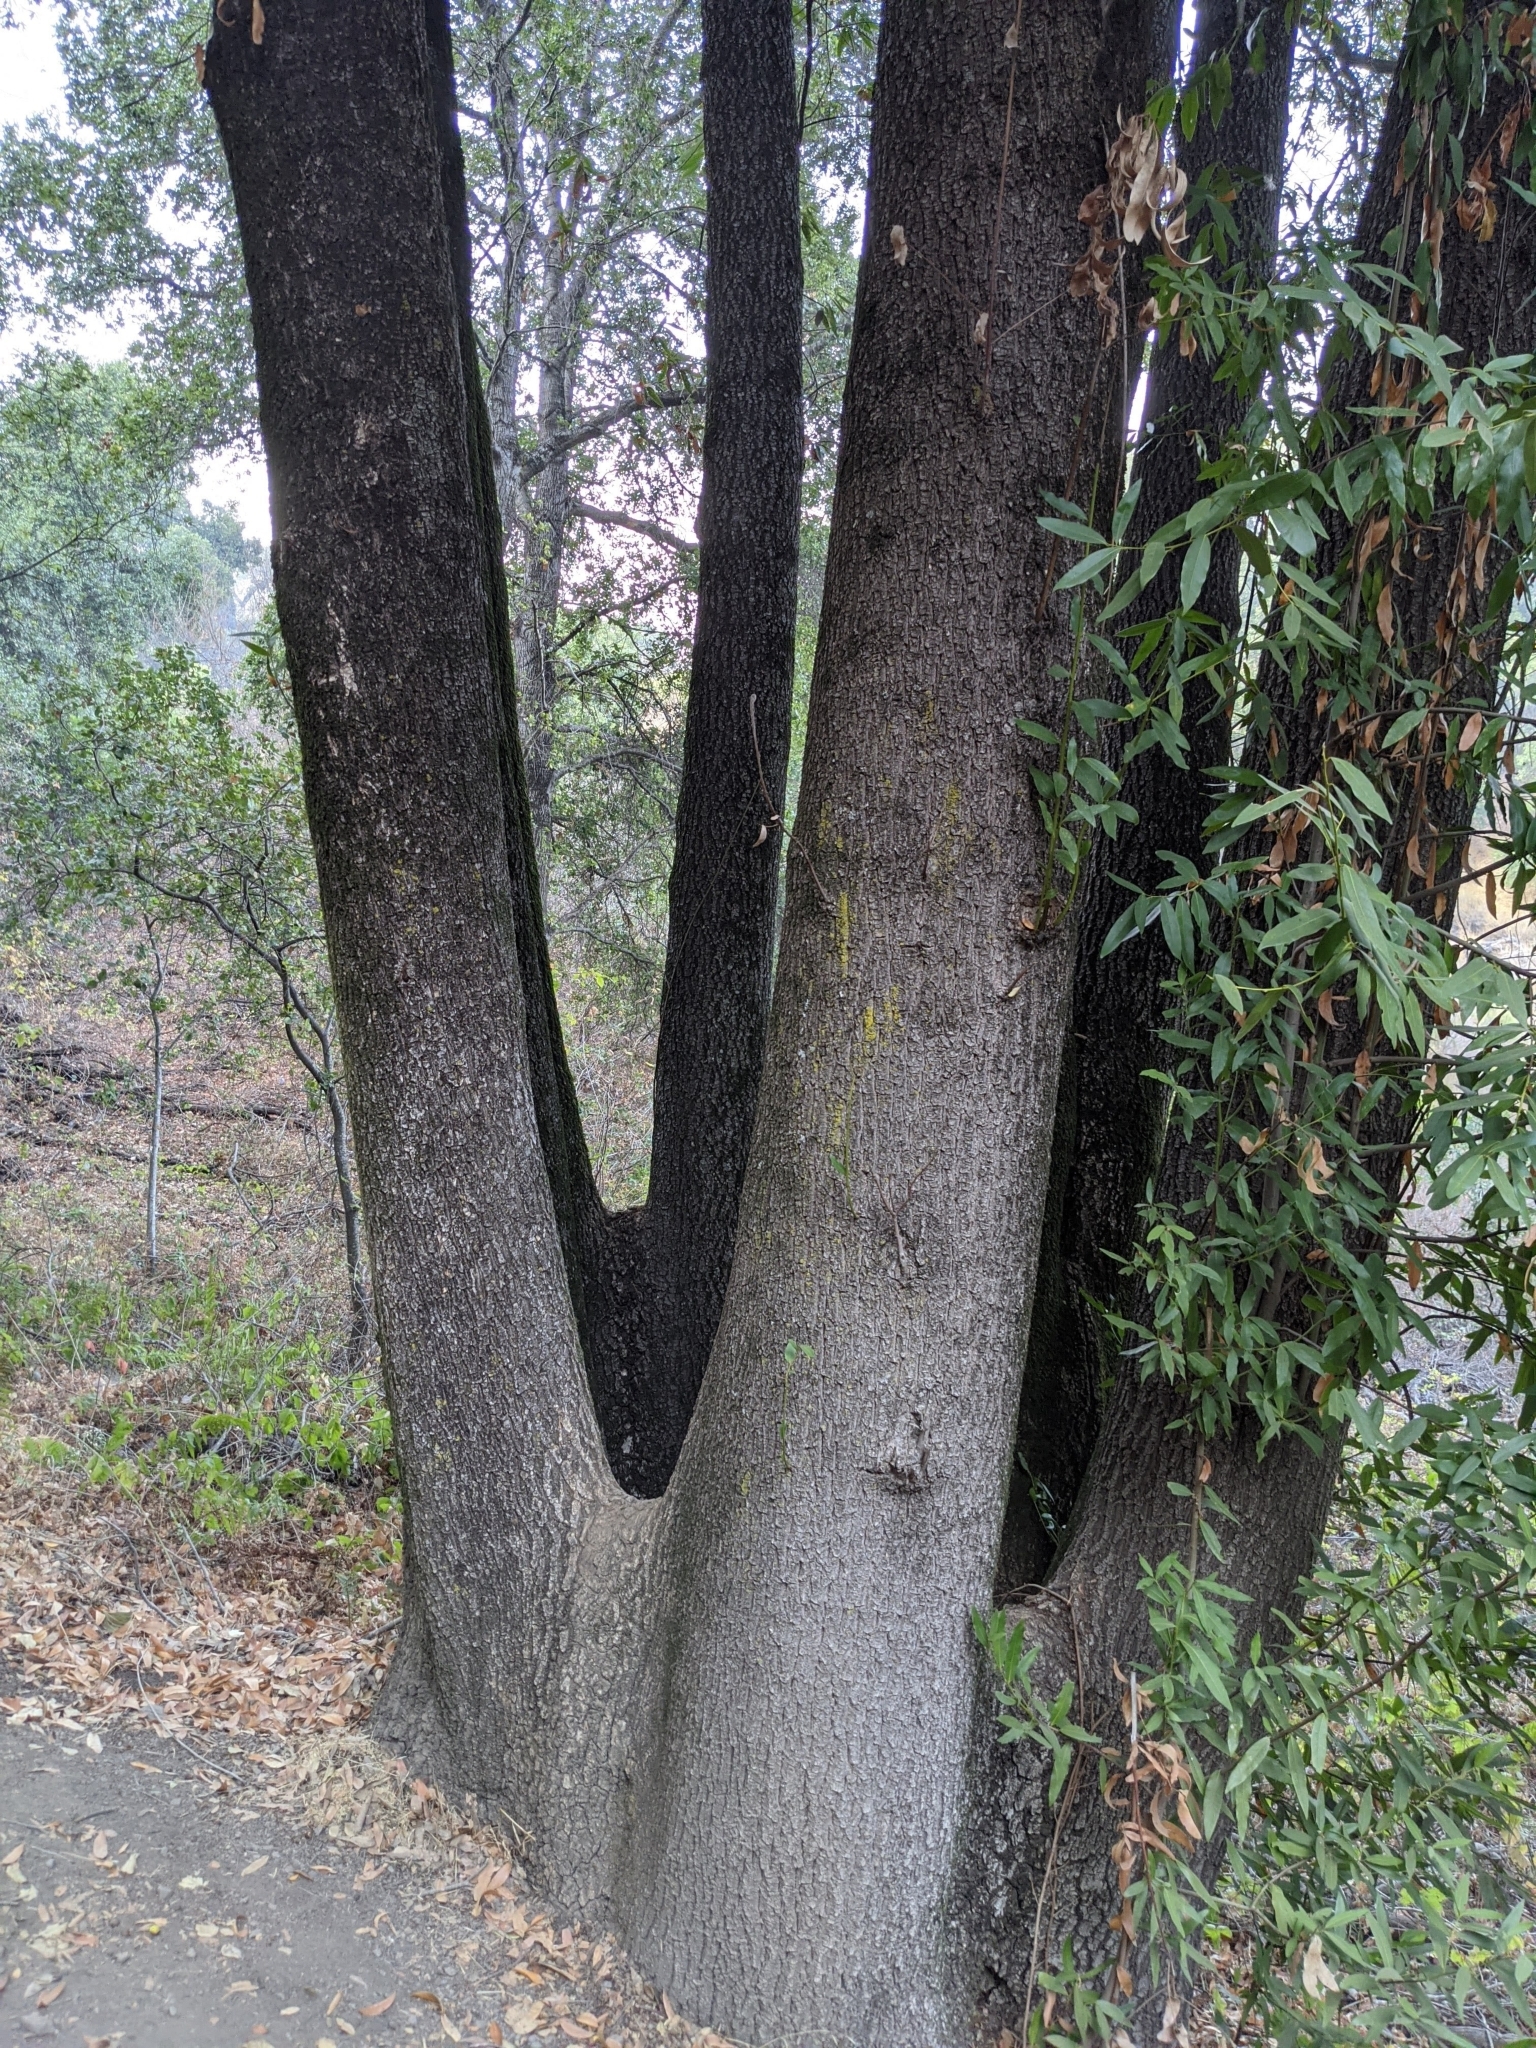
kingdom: Plantae
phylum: Tracheophyta
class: Magnoliopsida
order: Laurales
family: Lauraceae
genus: Umbellularia
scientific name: Umbellularia californica
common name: California bay
